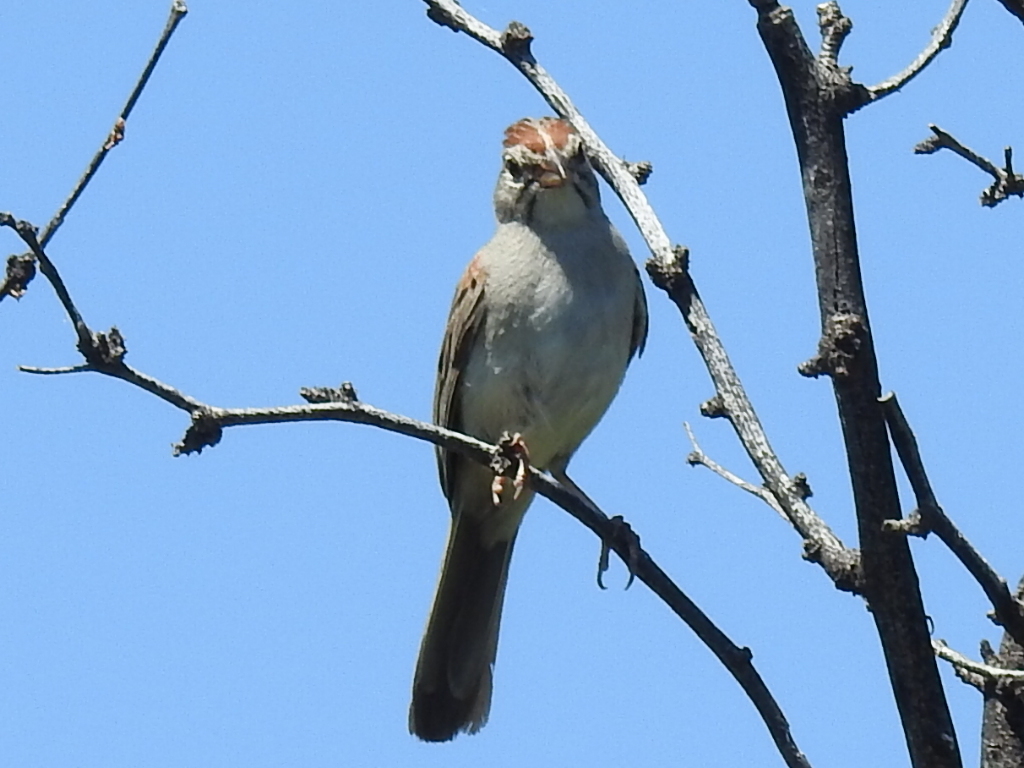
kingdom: Animalia
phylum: Chordata
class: Aves
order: Passeriformes
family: Passerellidae
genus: Peucaea
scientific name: Peucaea carpalis
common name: Rufous-winged sparrow
